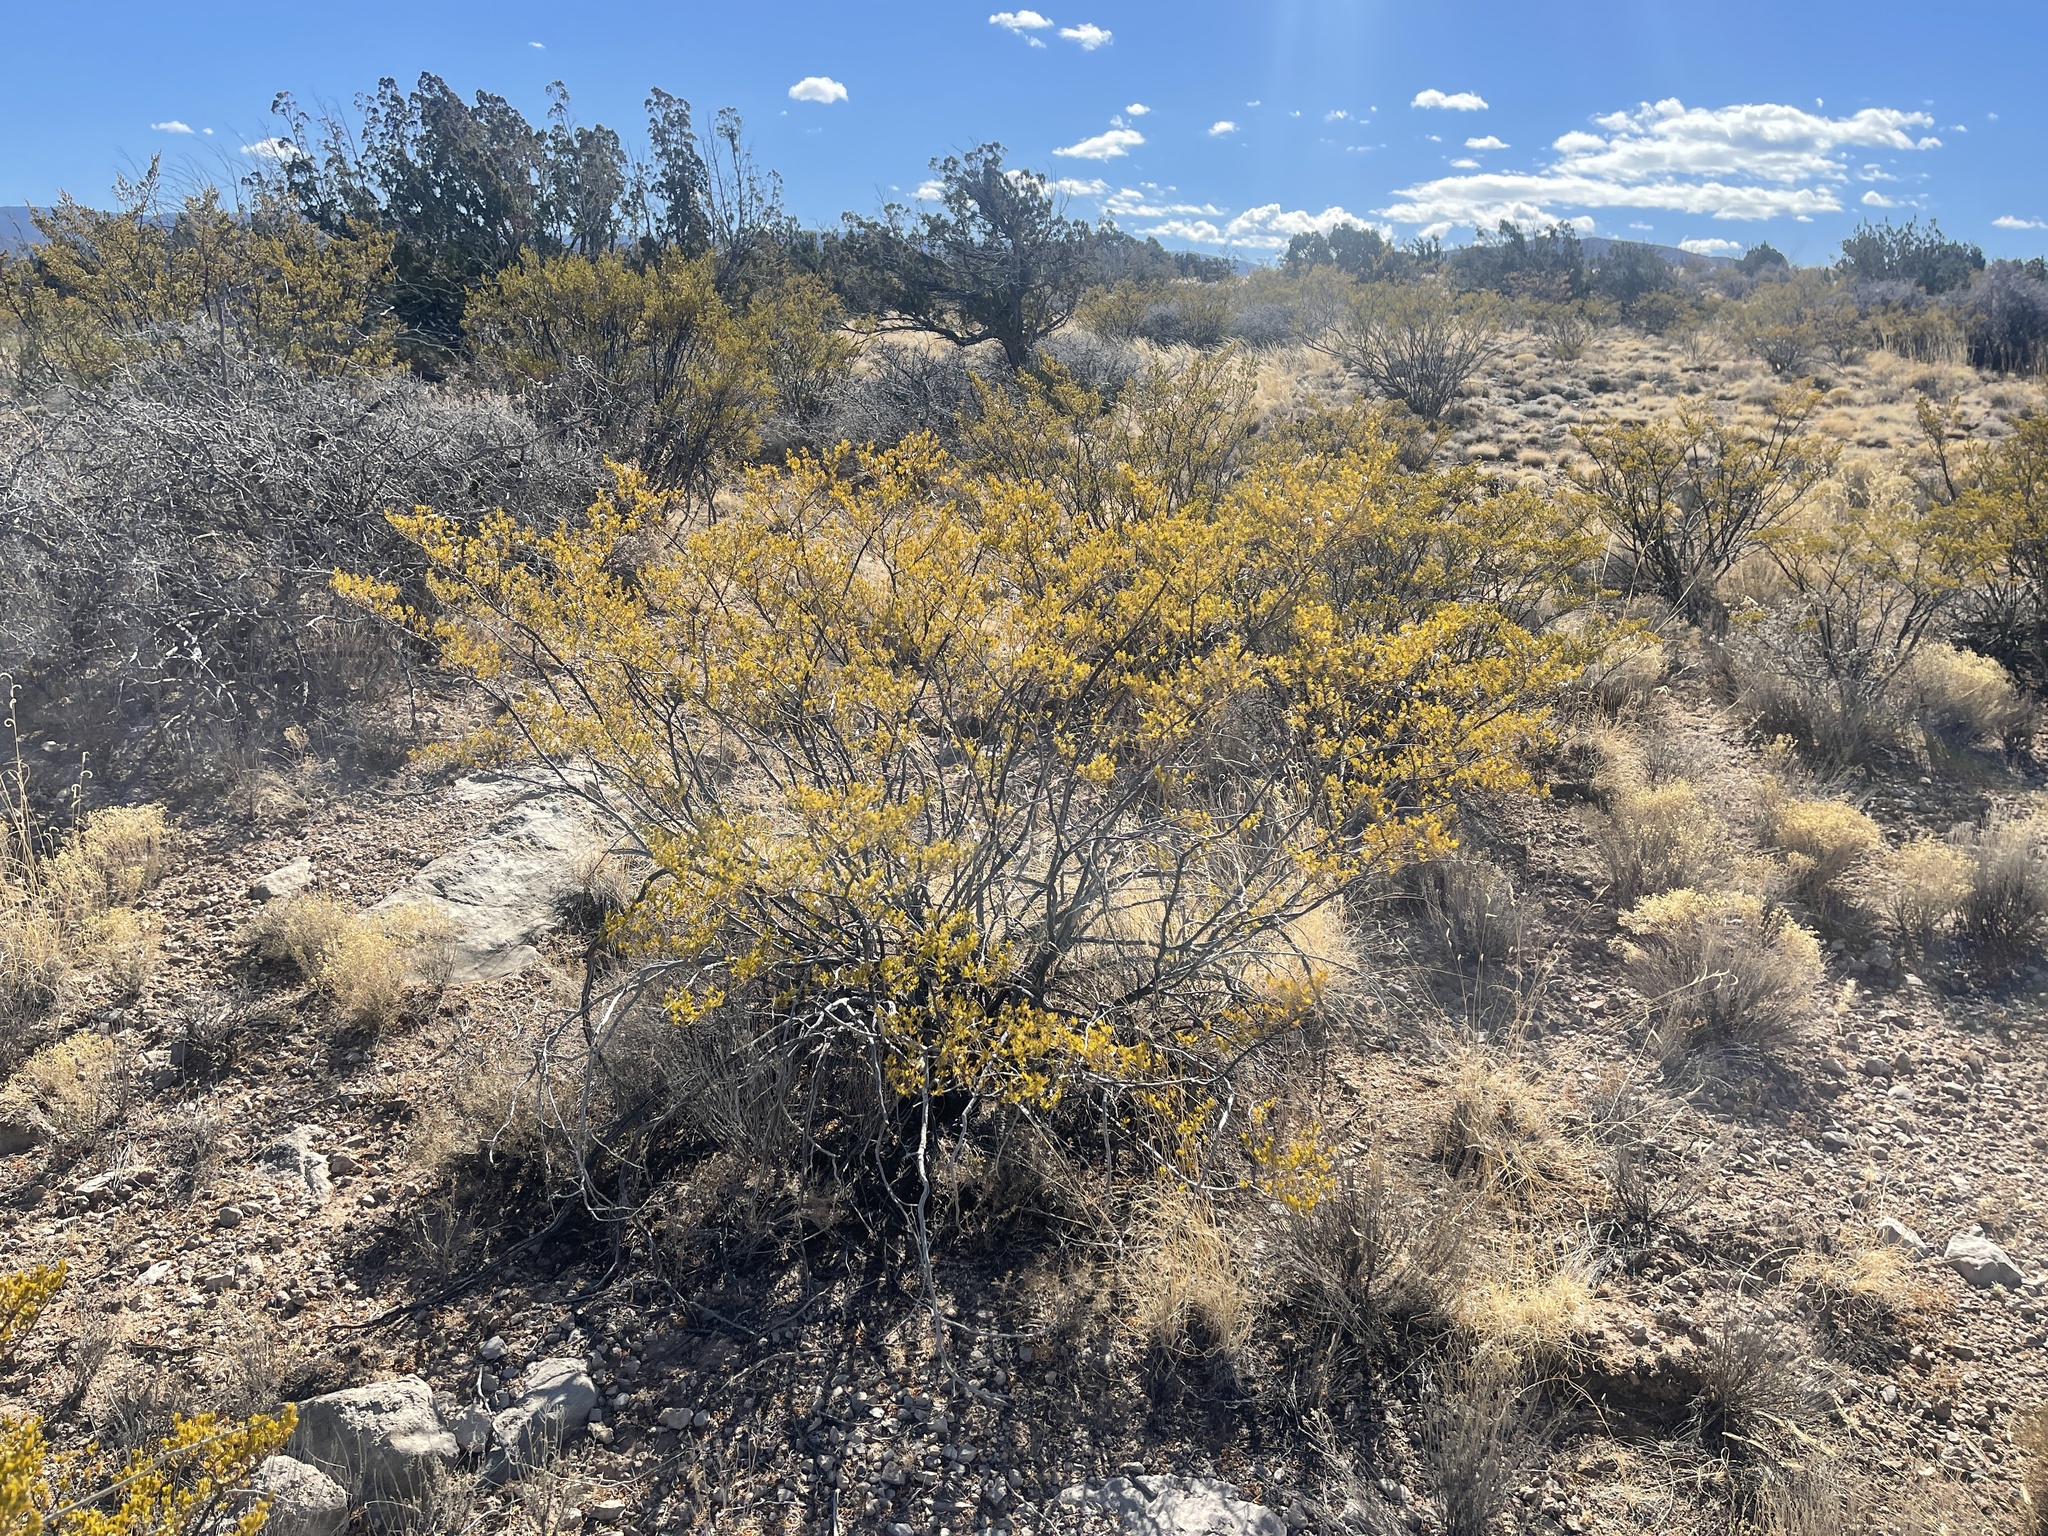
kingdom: Plantae
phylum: Tracheophyta
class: Magnoliopsida
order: Zygophyllales
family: Zygophyllaceae
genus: Larrea
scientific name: Larrea tridentata
